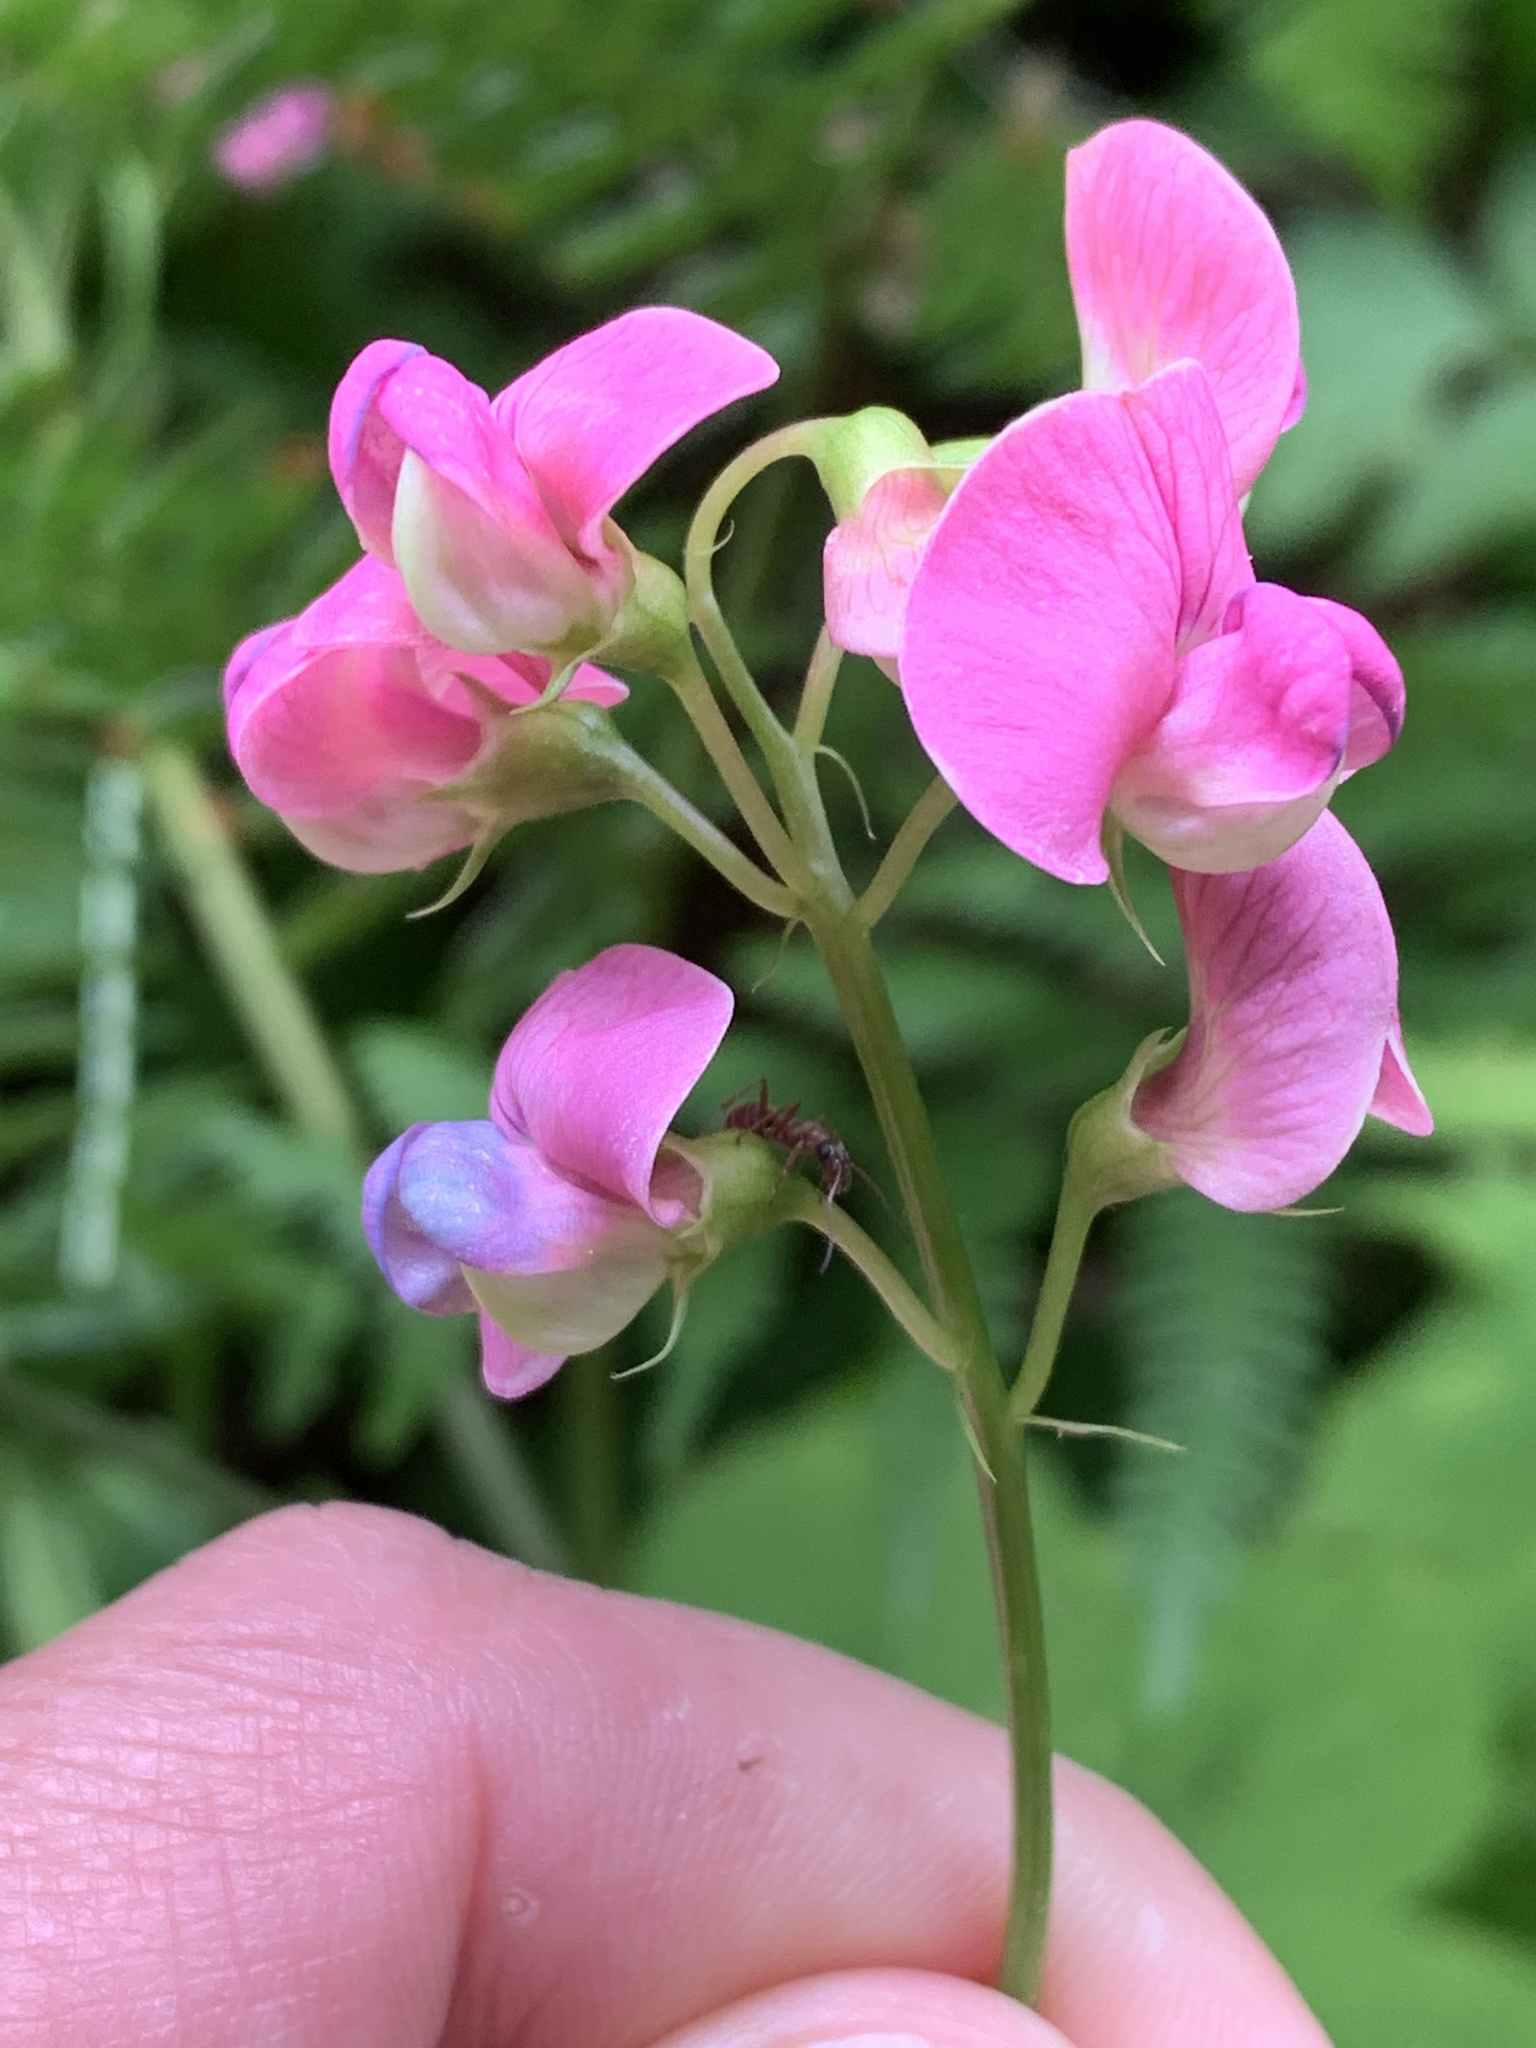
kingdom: Plantae
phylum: Tracheophyta
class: Magnoliopsida
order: Fabales
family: Fabaceae
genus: Lathyrus
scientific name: Lathyrus sylvestris
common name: Flat pea
